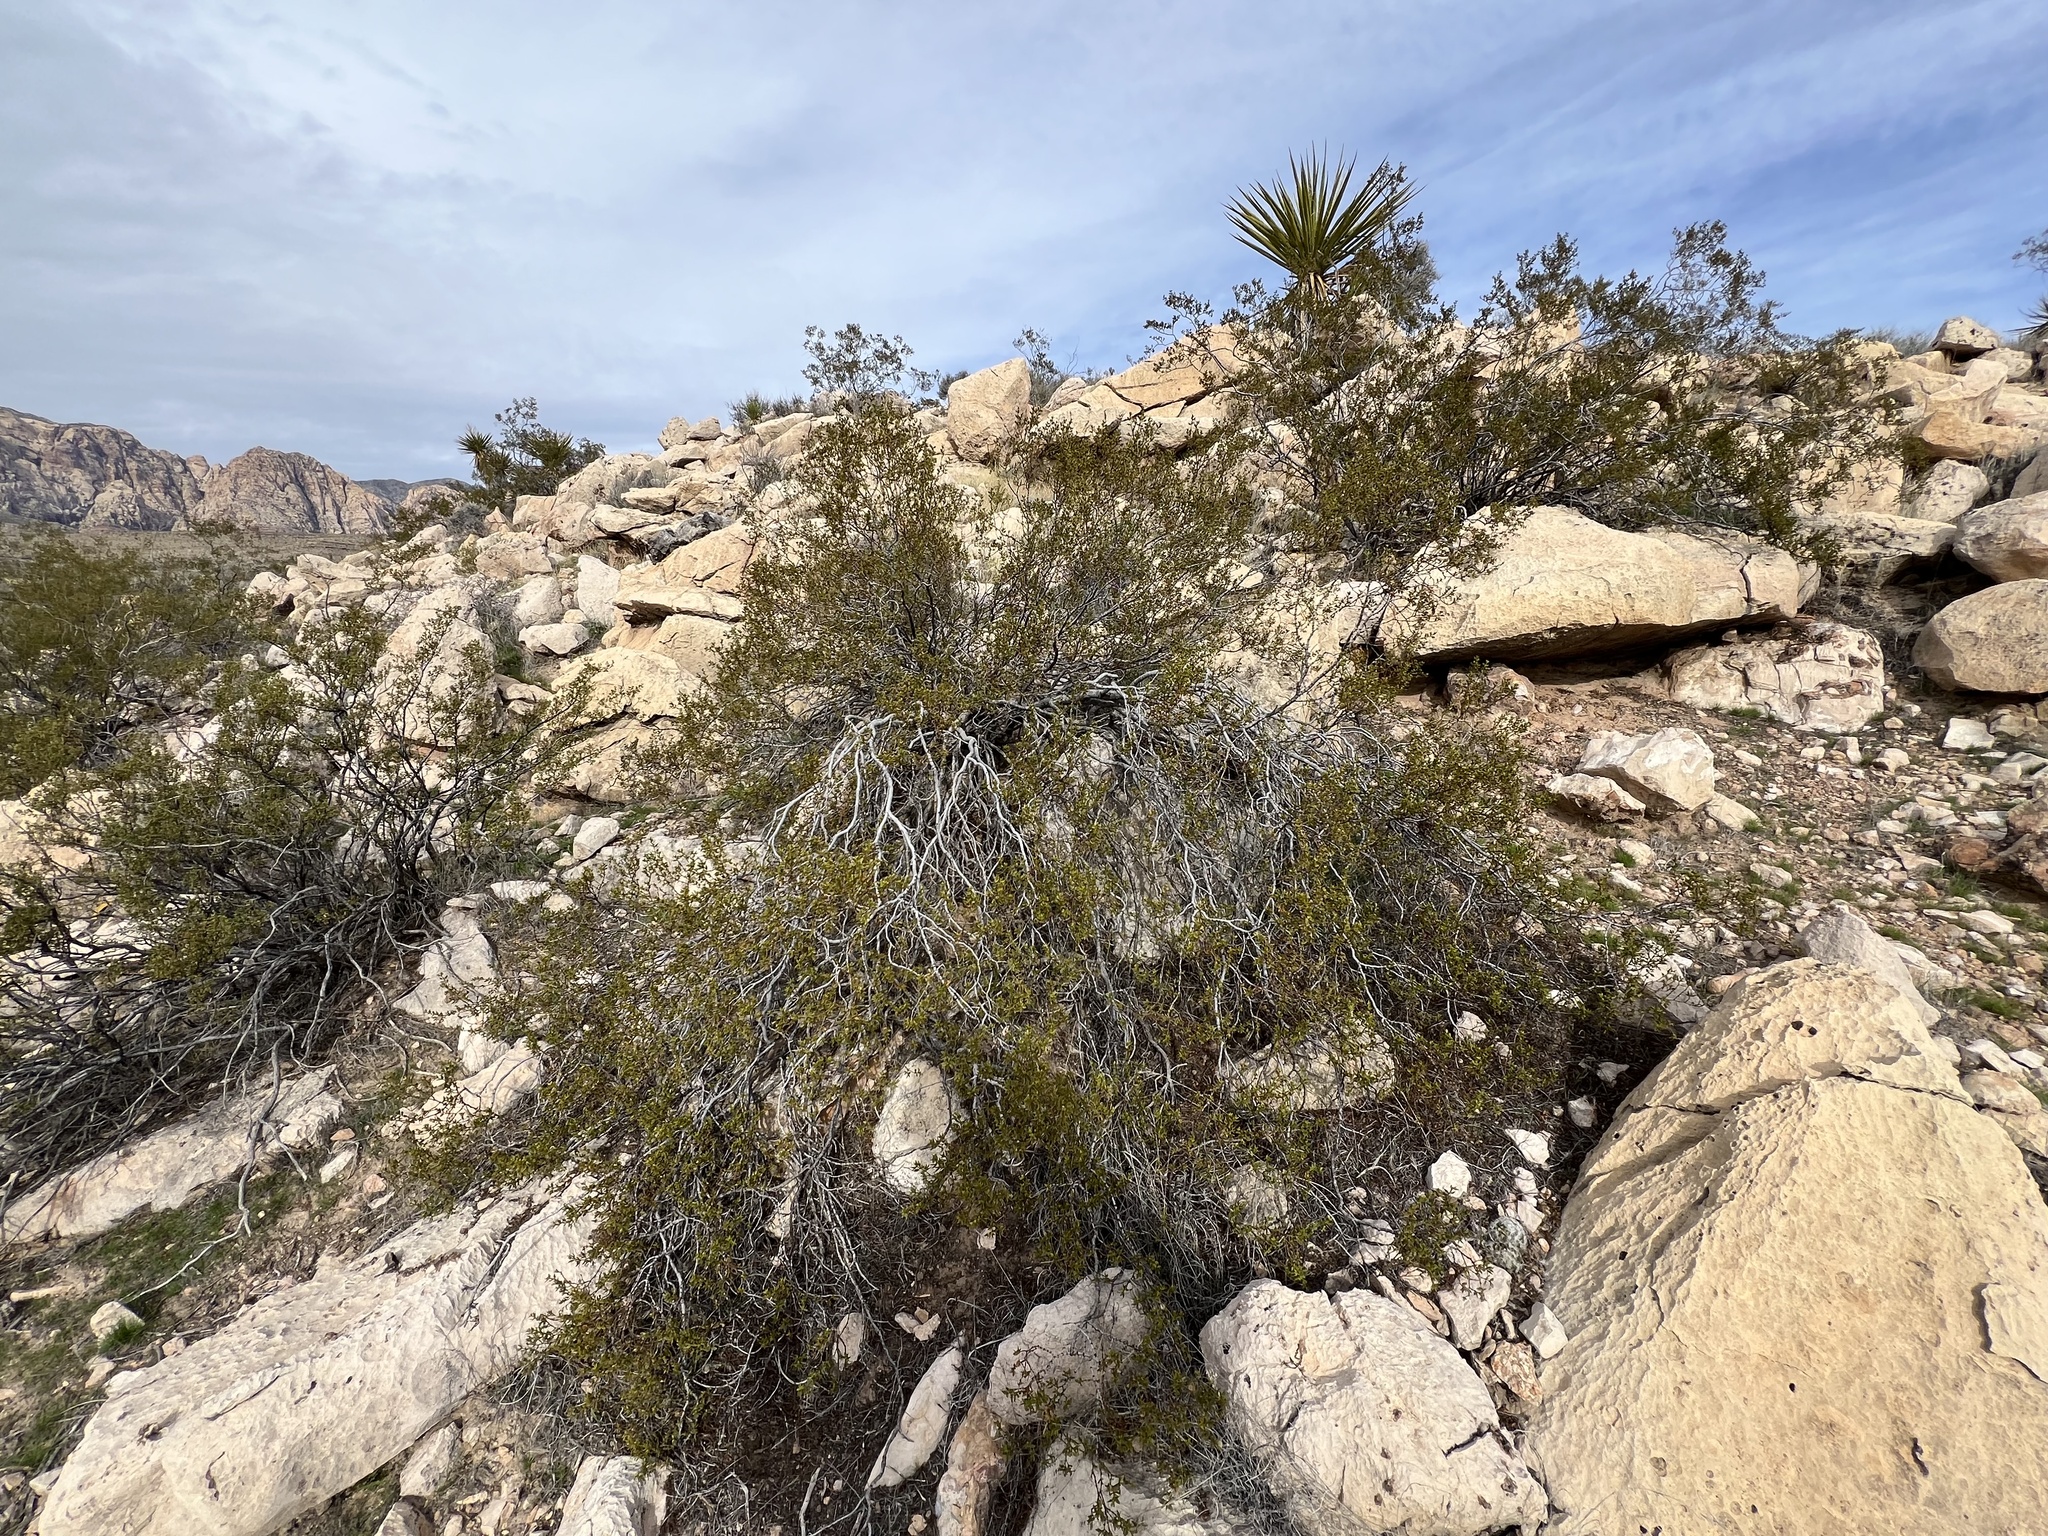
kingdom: Plantae
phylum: Tracheophyta
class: Magnoliopsida
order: Zygophyllales
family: Zygophyllaceae
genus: Larrea
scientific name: Larrea tridentata
